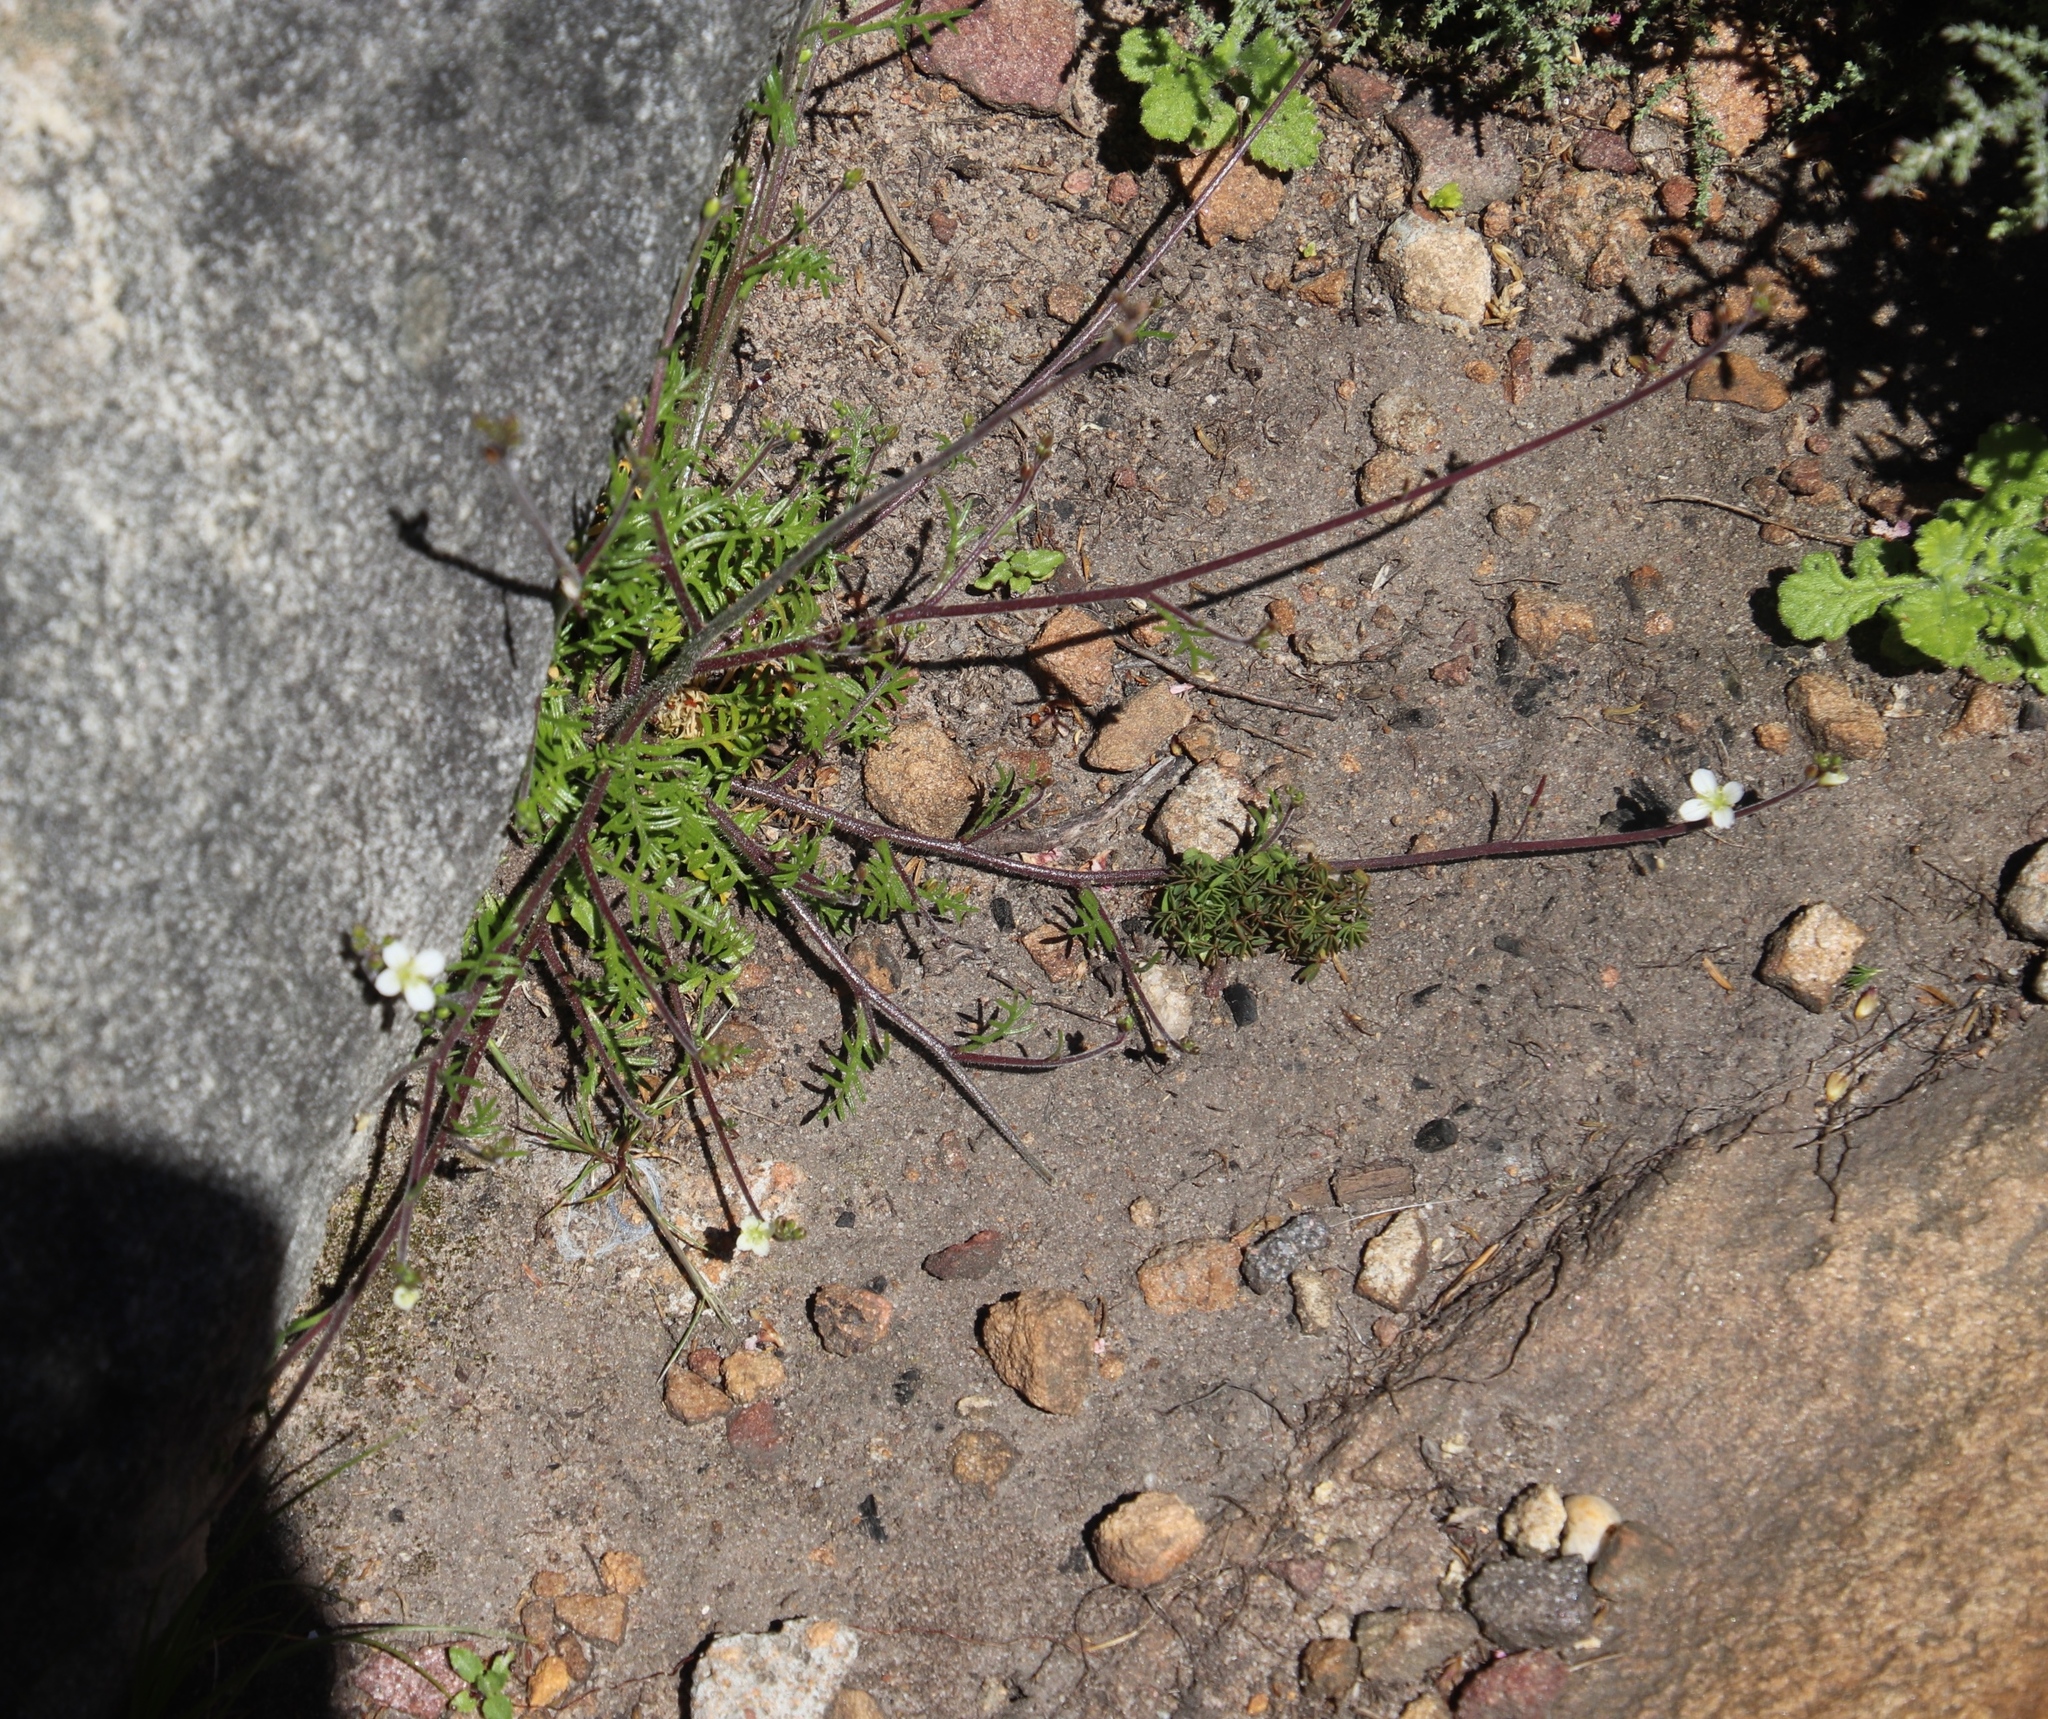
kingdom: Plantae
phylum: Tracheophyta
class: Magnoliopsida
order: Brassicales
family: Brassicaceae
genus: Heliophila
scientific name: Heliophila concatenata
